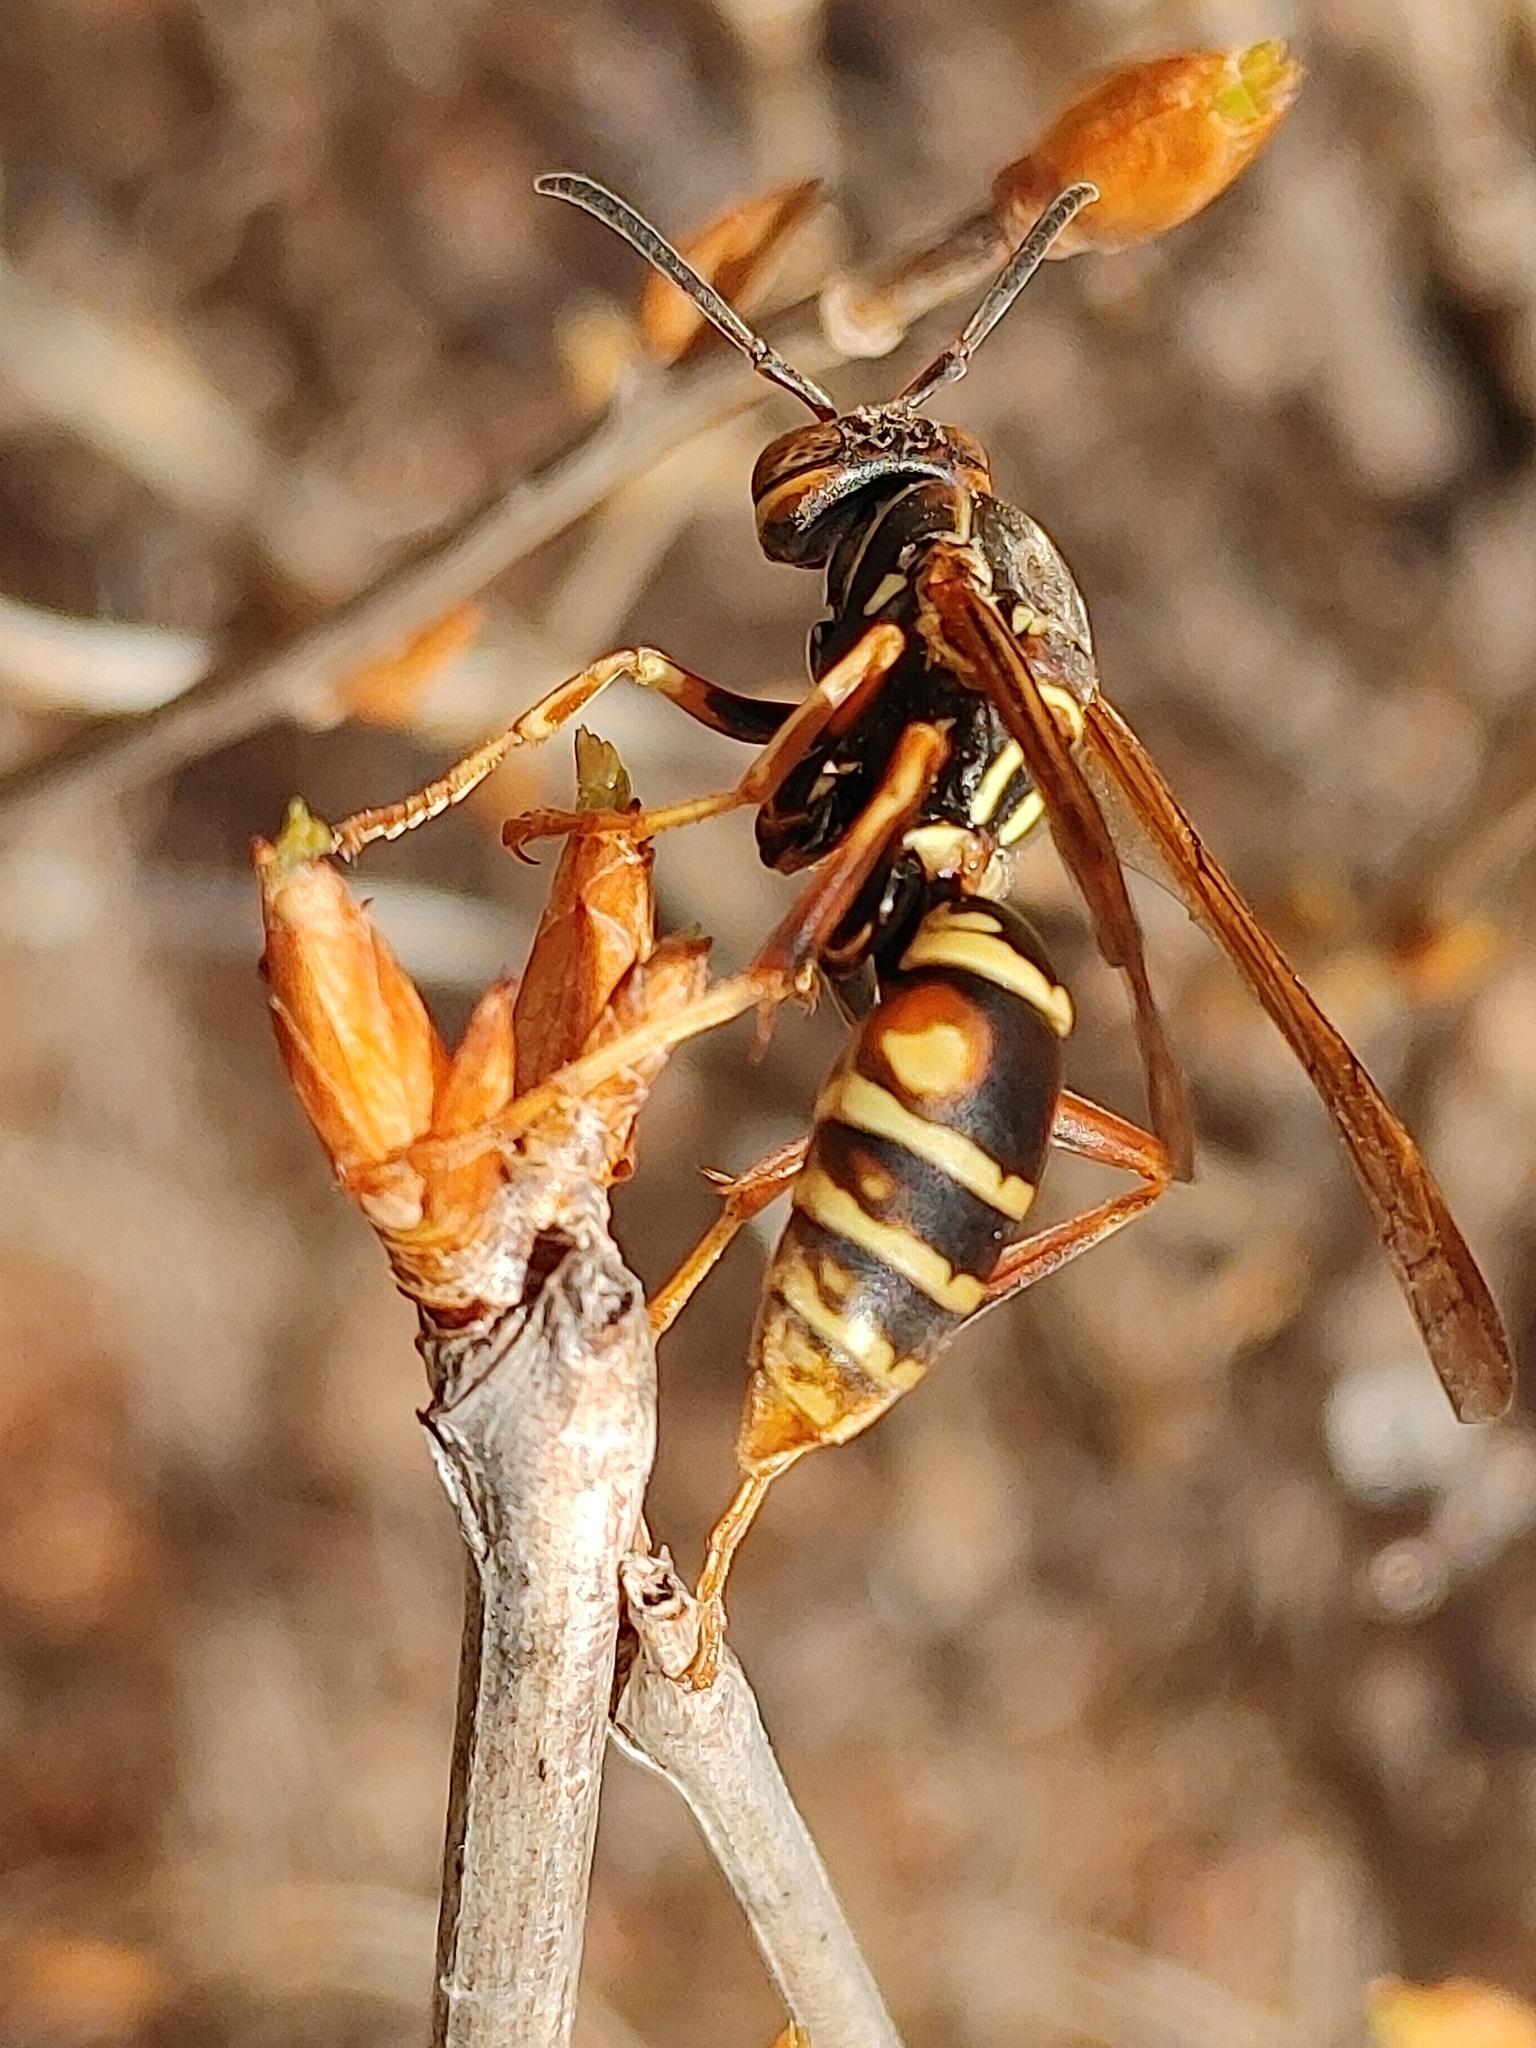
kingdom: Animalia
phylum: Arthropoda
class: Insecta
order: Hymenoptera
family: Eumenidae
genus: Polistes
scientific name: Polistes fuscatus
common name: Dark paper wasp
